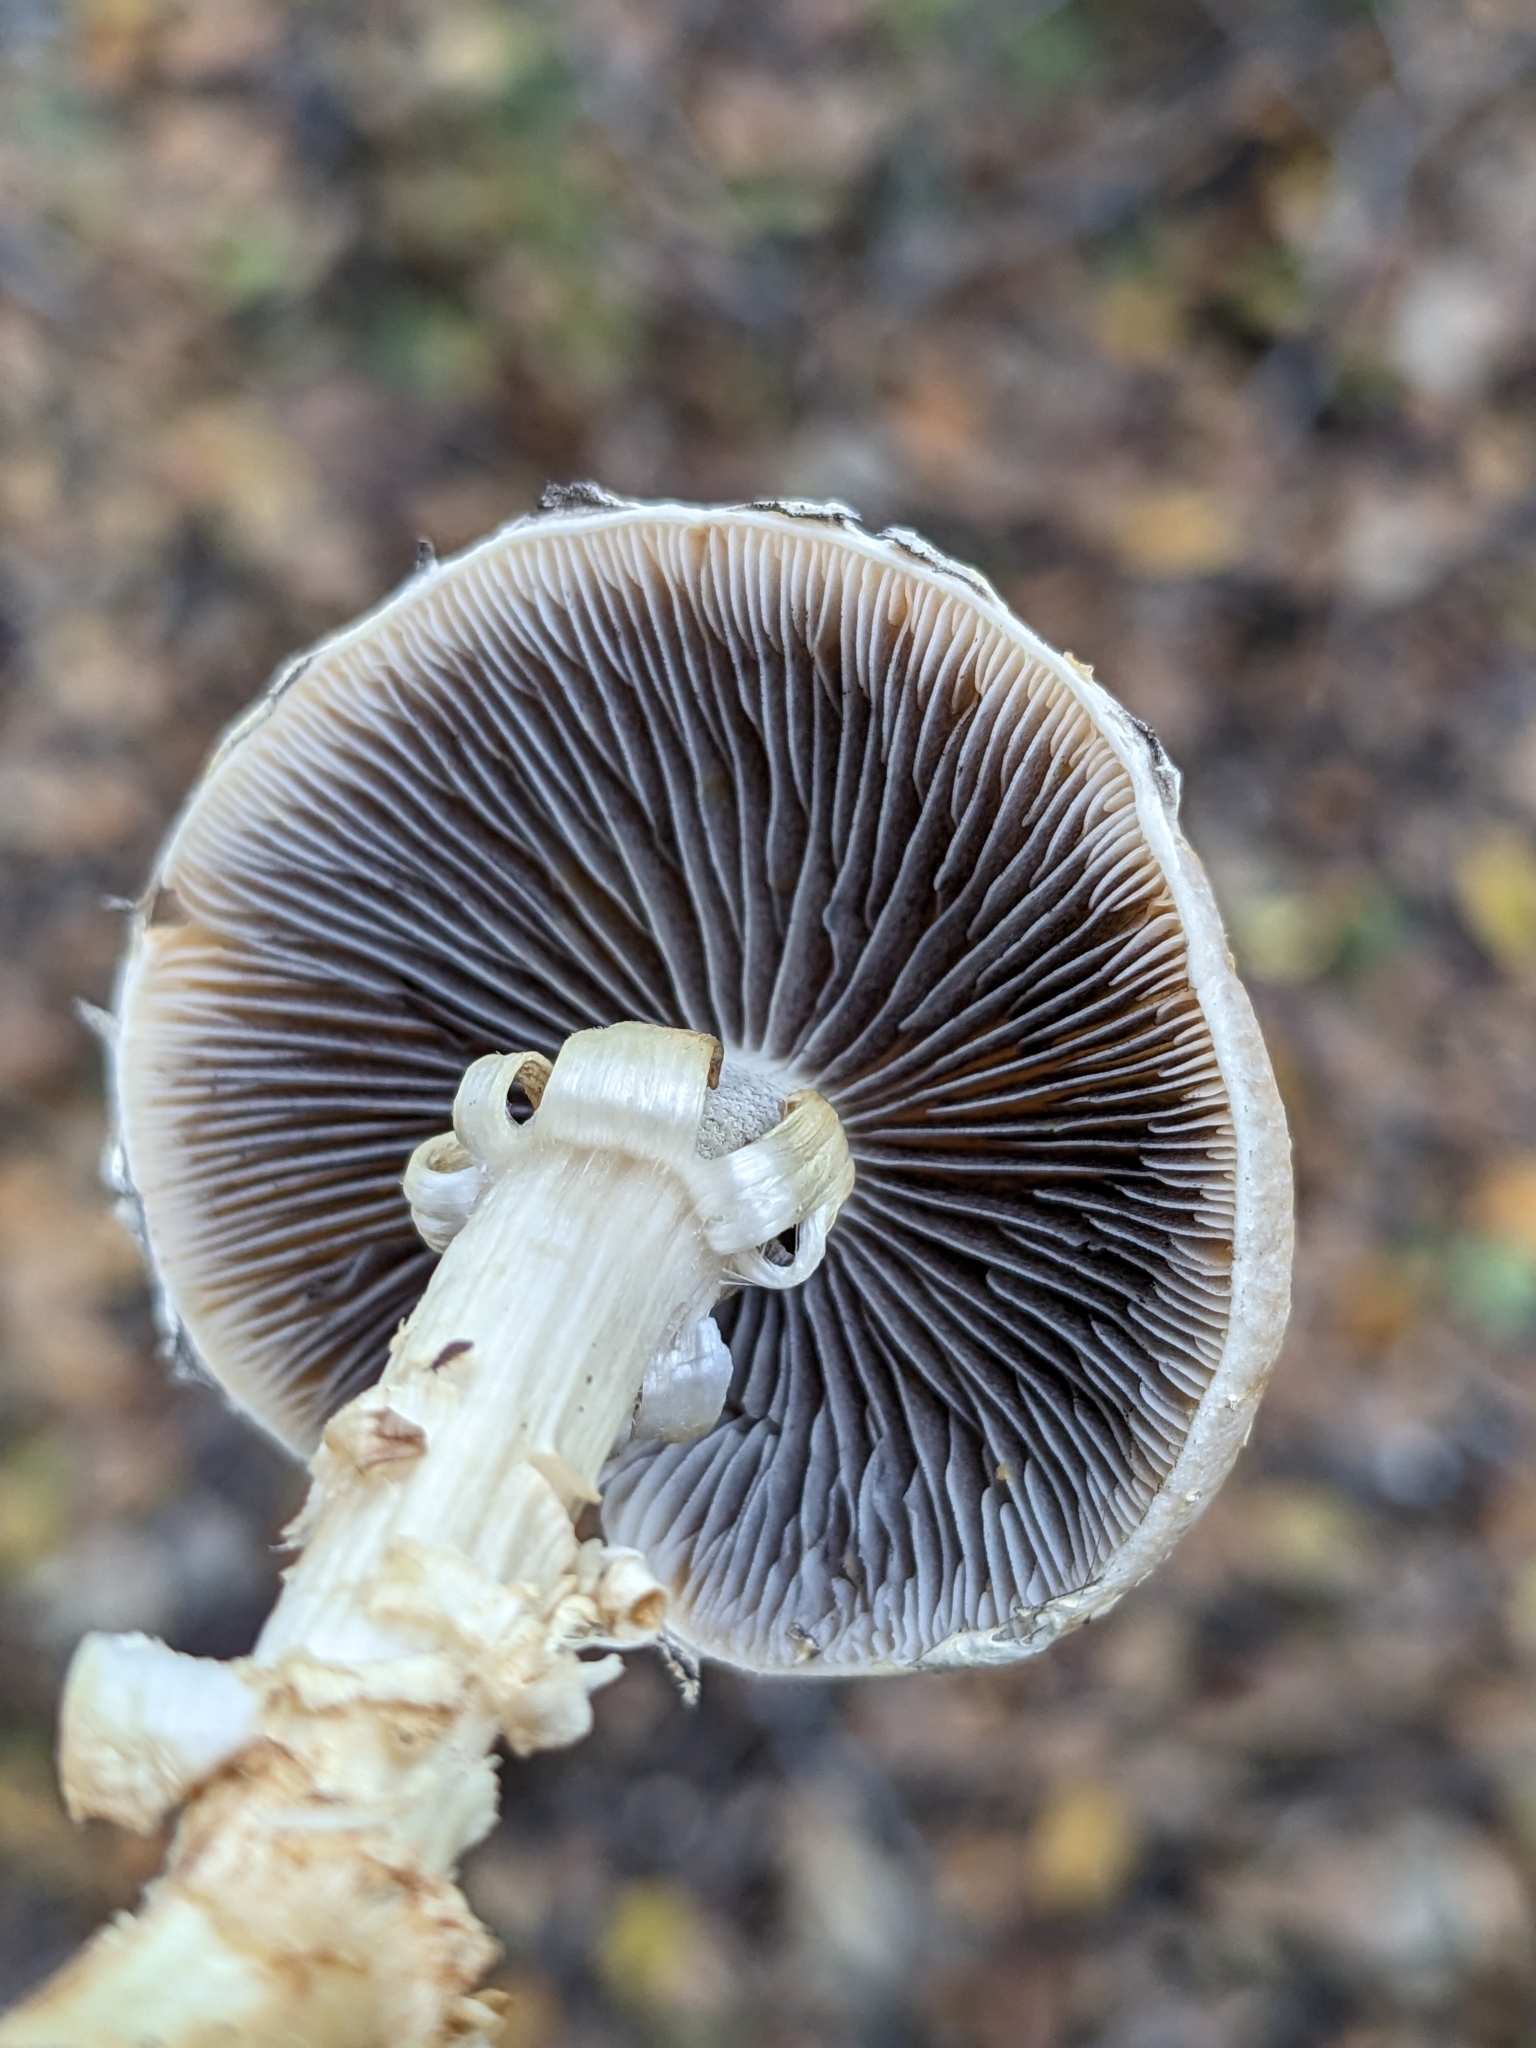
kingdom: Fungi
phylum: Basidiomycota
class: Agaricomycetes
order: Agaricales
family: Strophariaceae
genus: Leratiomyces
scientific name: Leratiomyces percevalii
